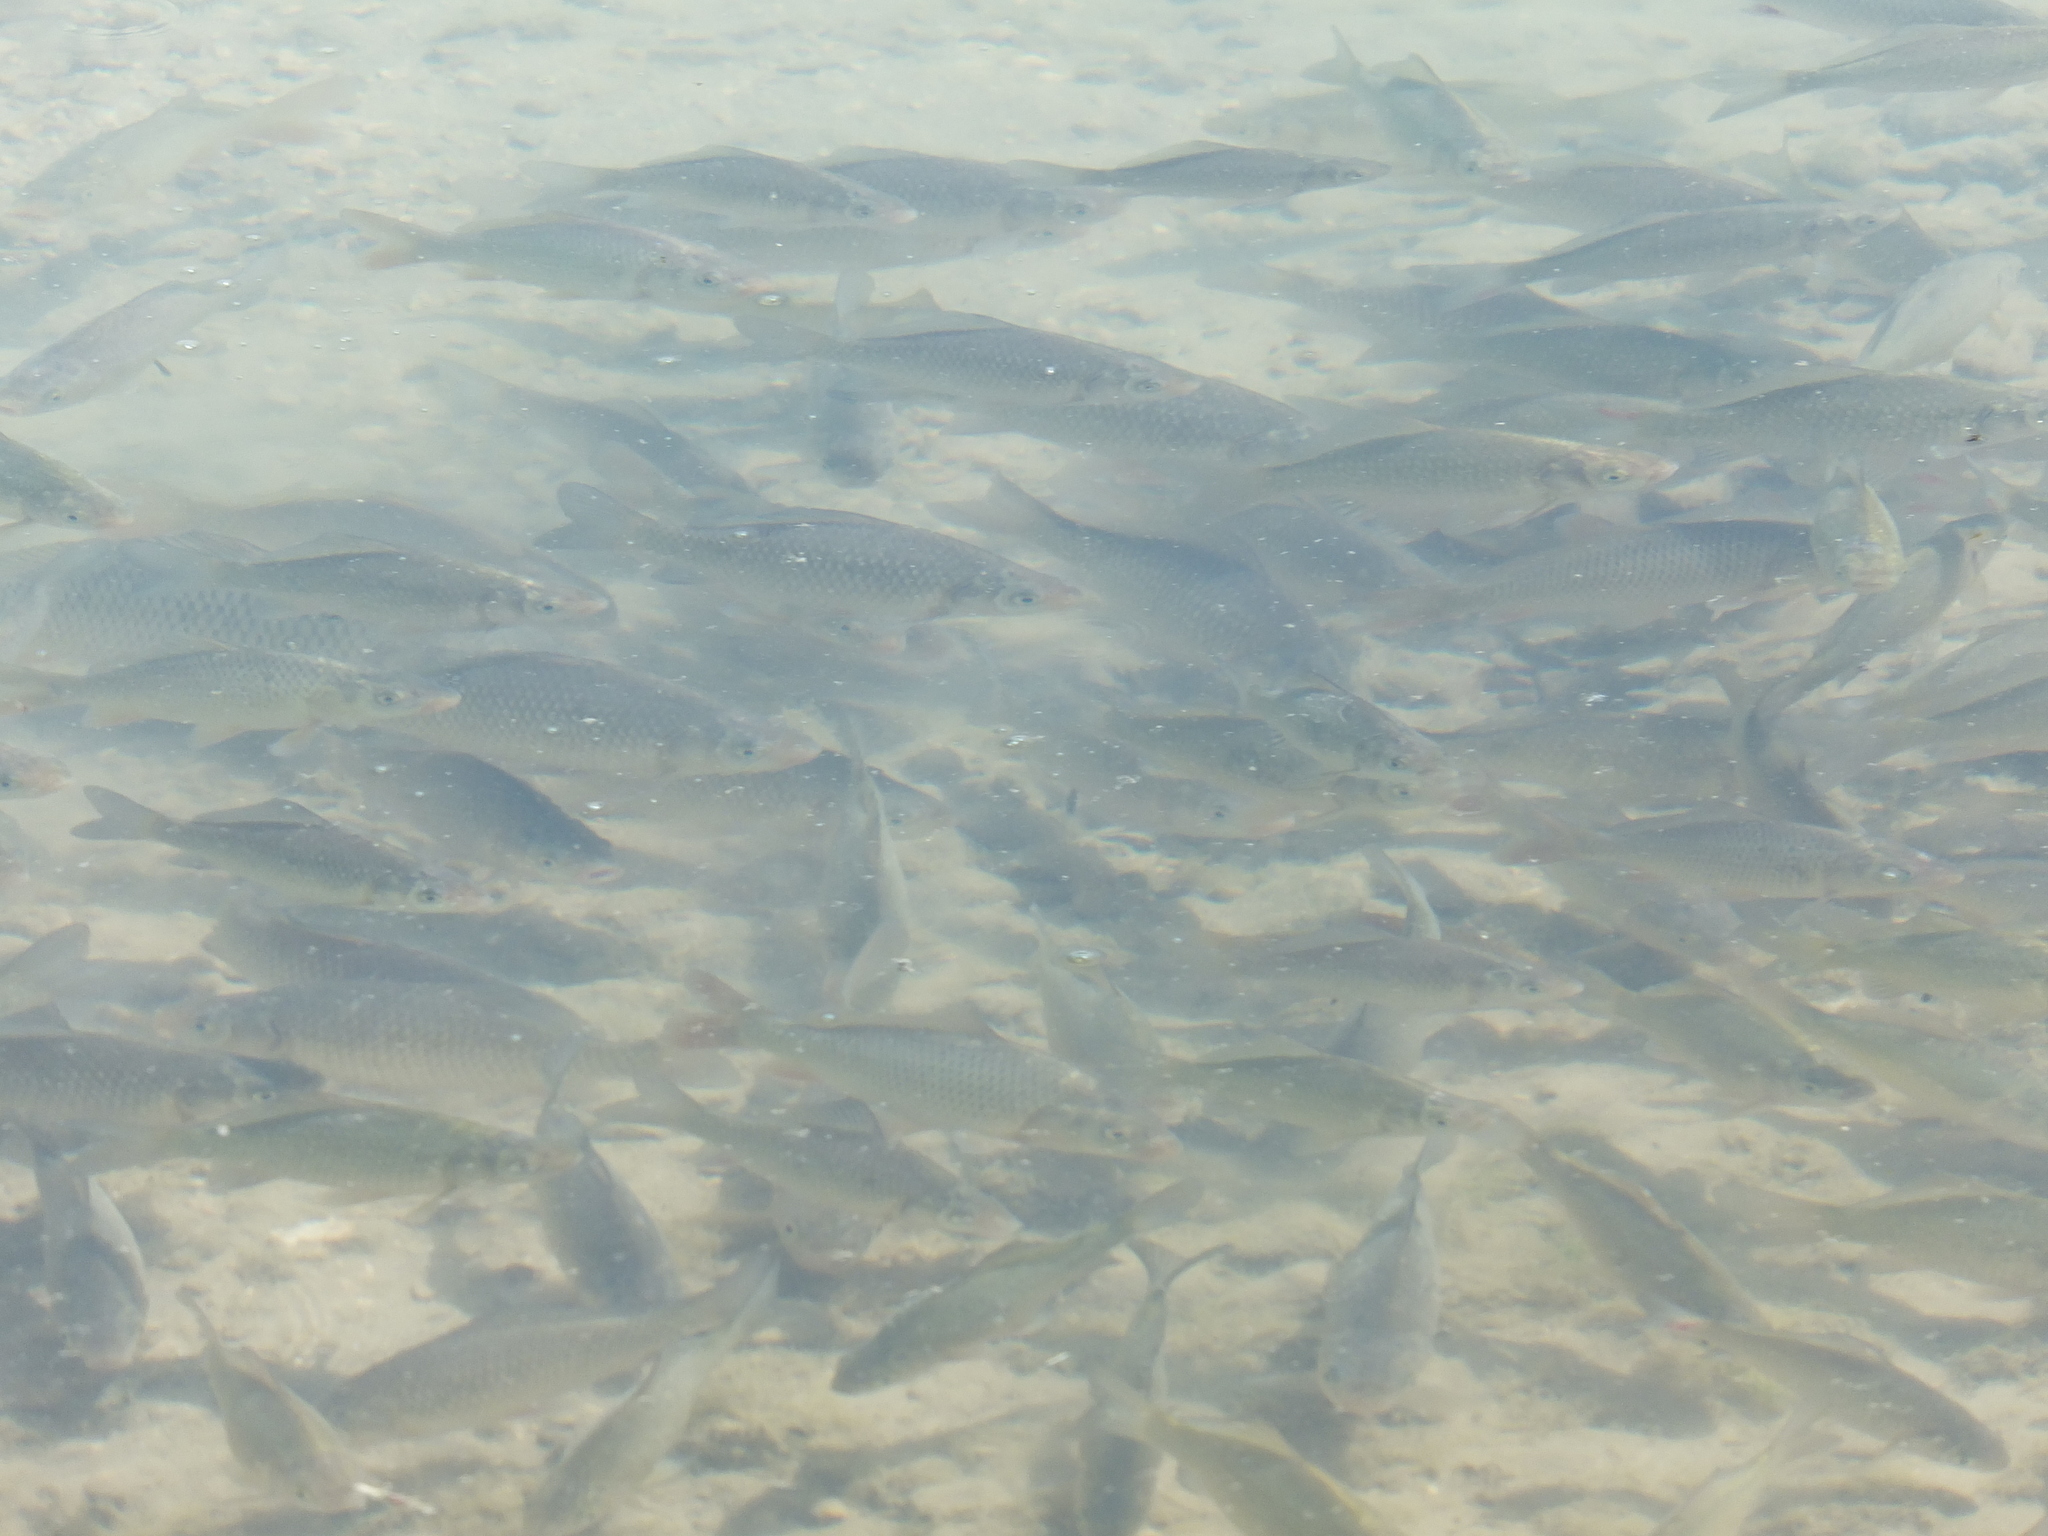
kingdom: Animalia
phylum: Chordata
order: Cypriniformes
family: Cyprinidae
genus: Cyprinus
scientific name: Cyprinus carpio
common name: Common carp
